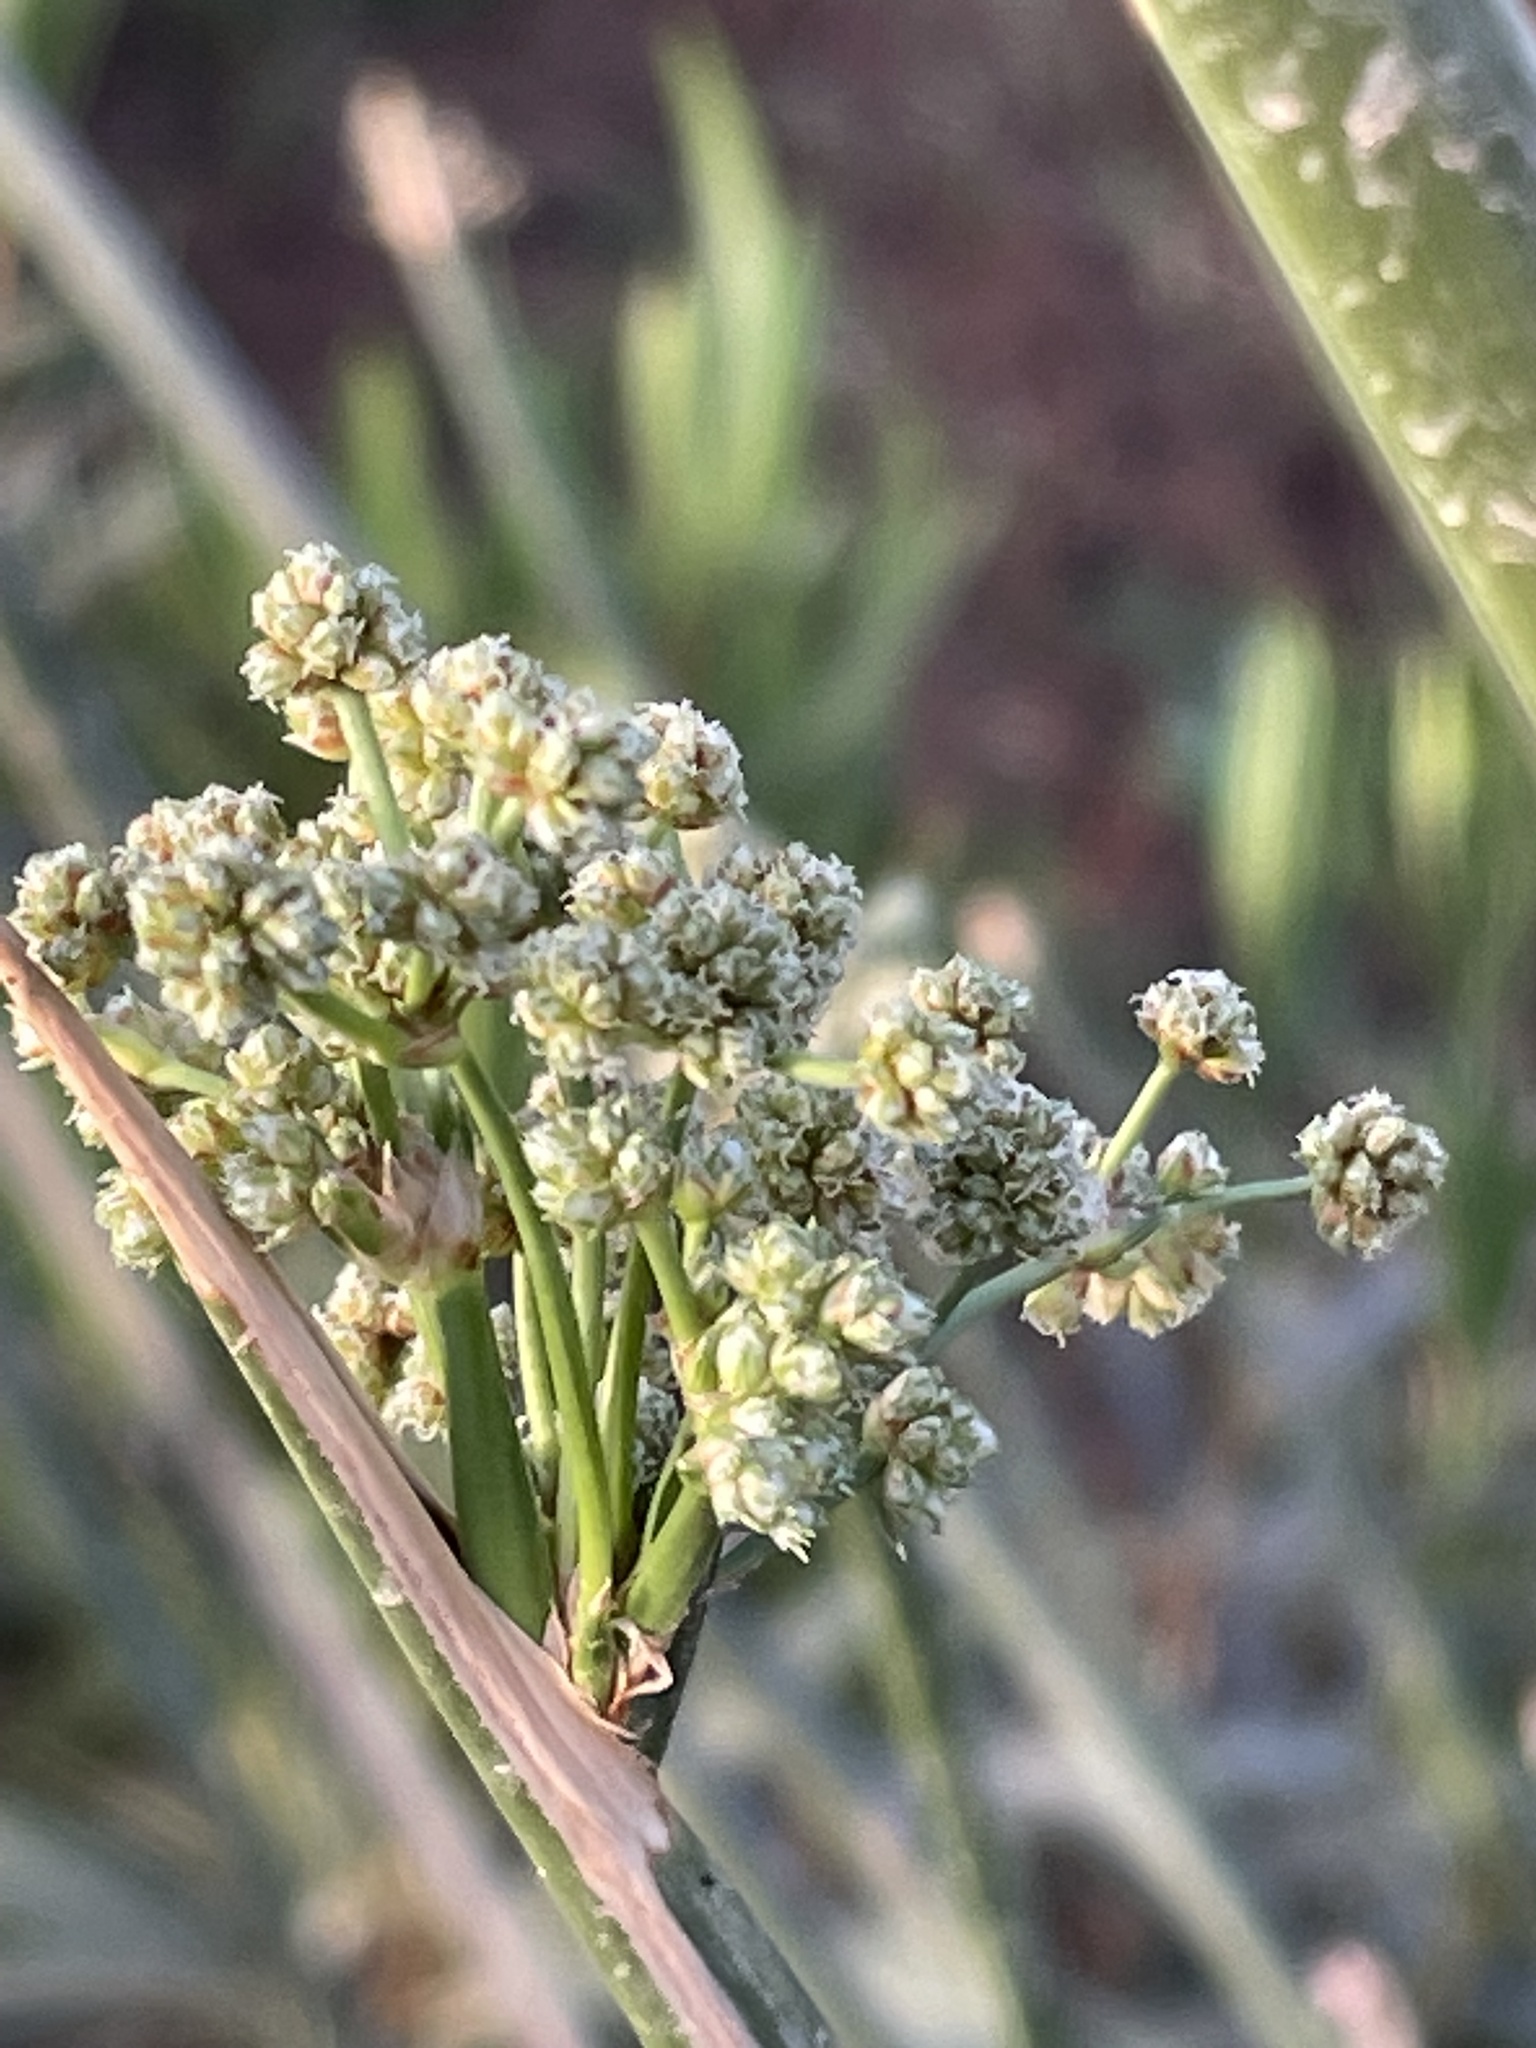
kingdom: Plantae
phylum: Tracheophyta
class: Liliopsida
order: Poales
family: Cyperaceae
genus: Scirpoides
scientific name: Scirpoides holoschoenus
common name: Round-headed club-rush
